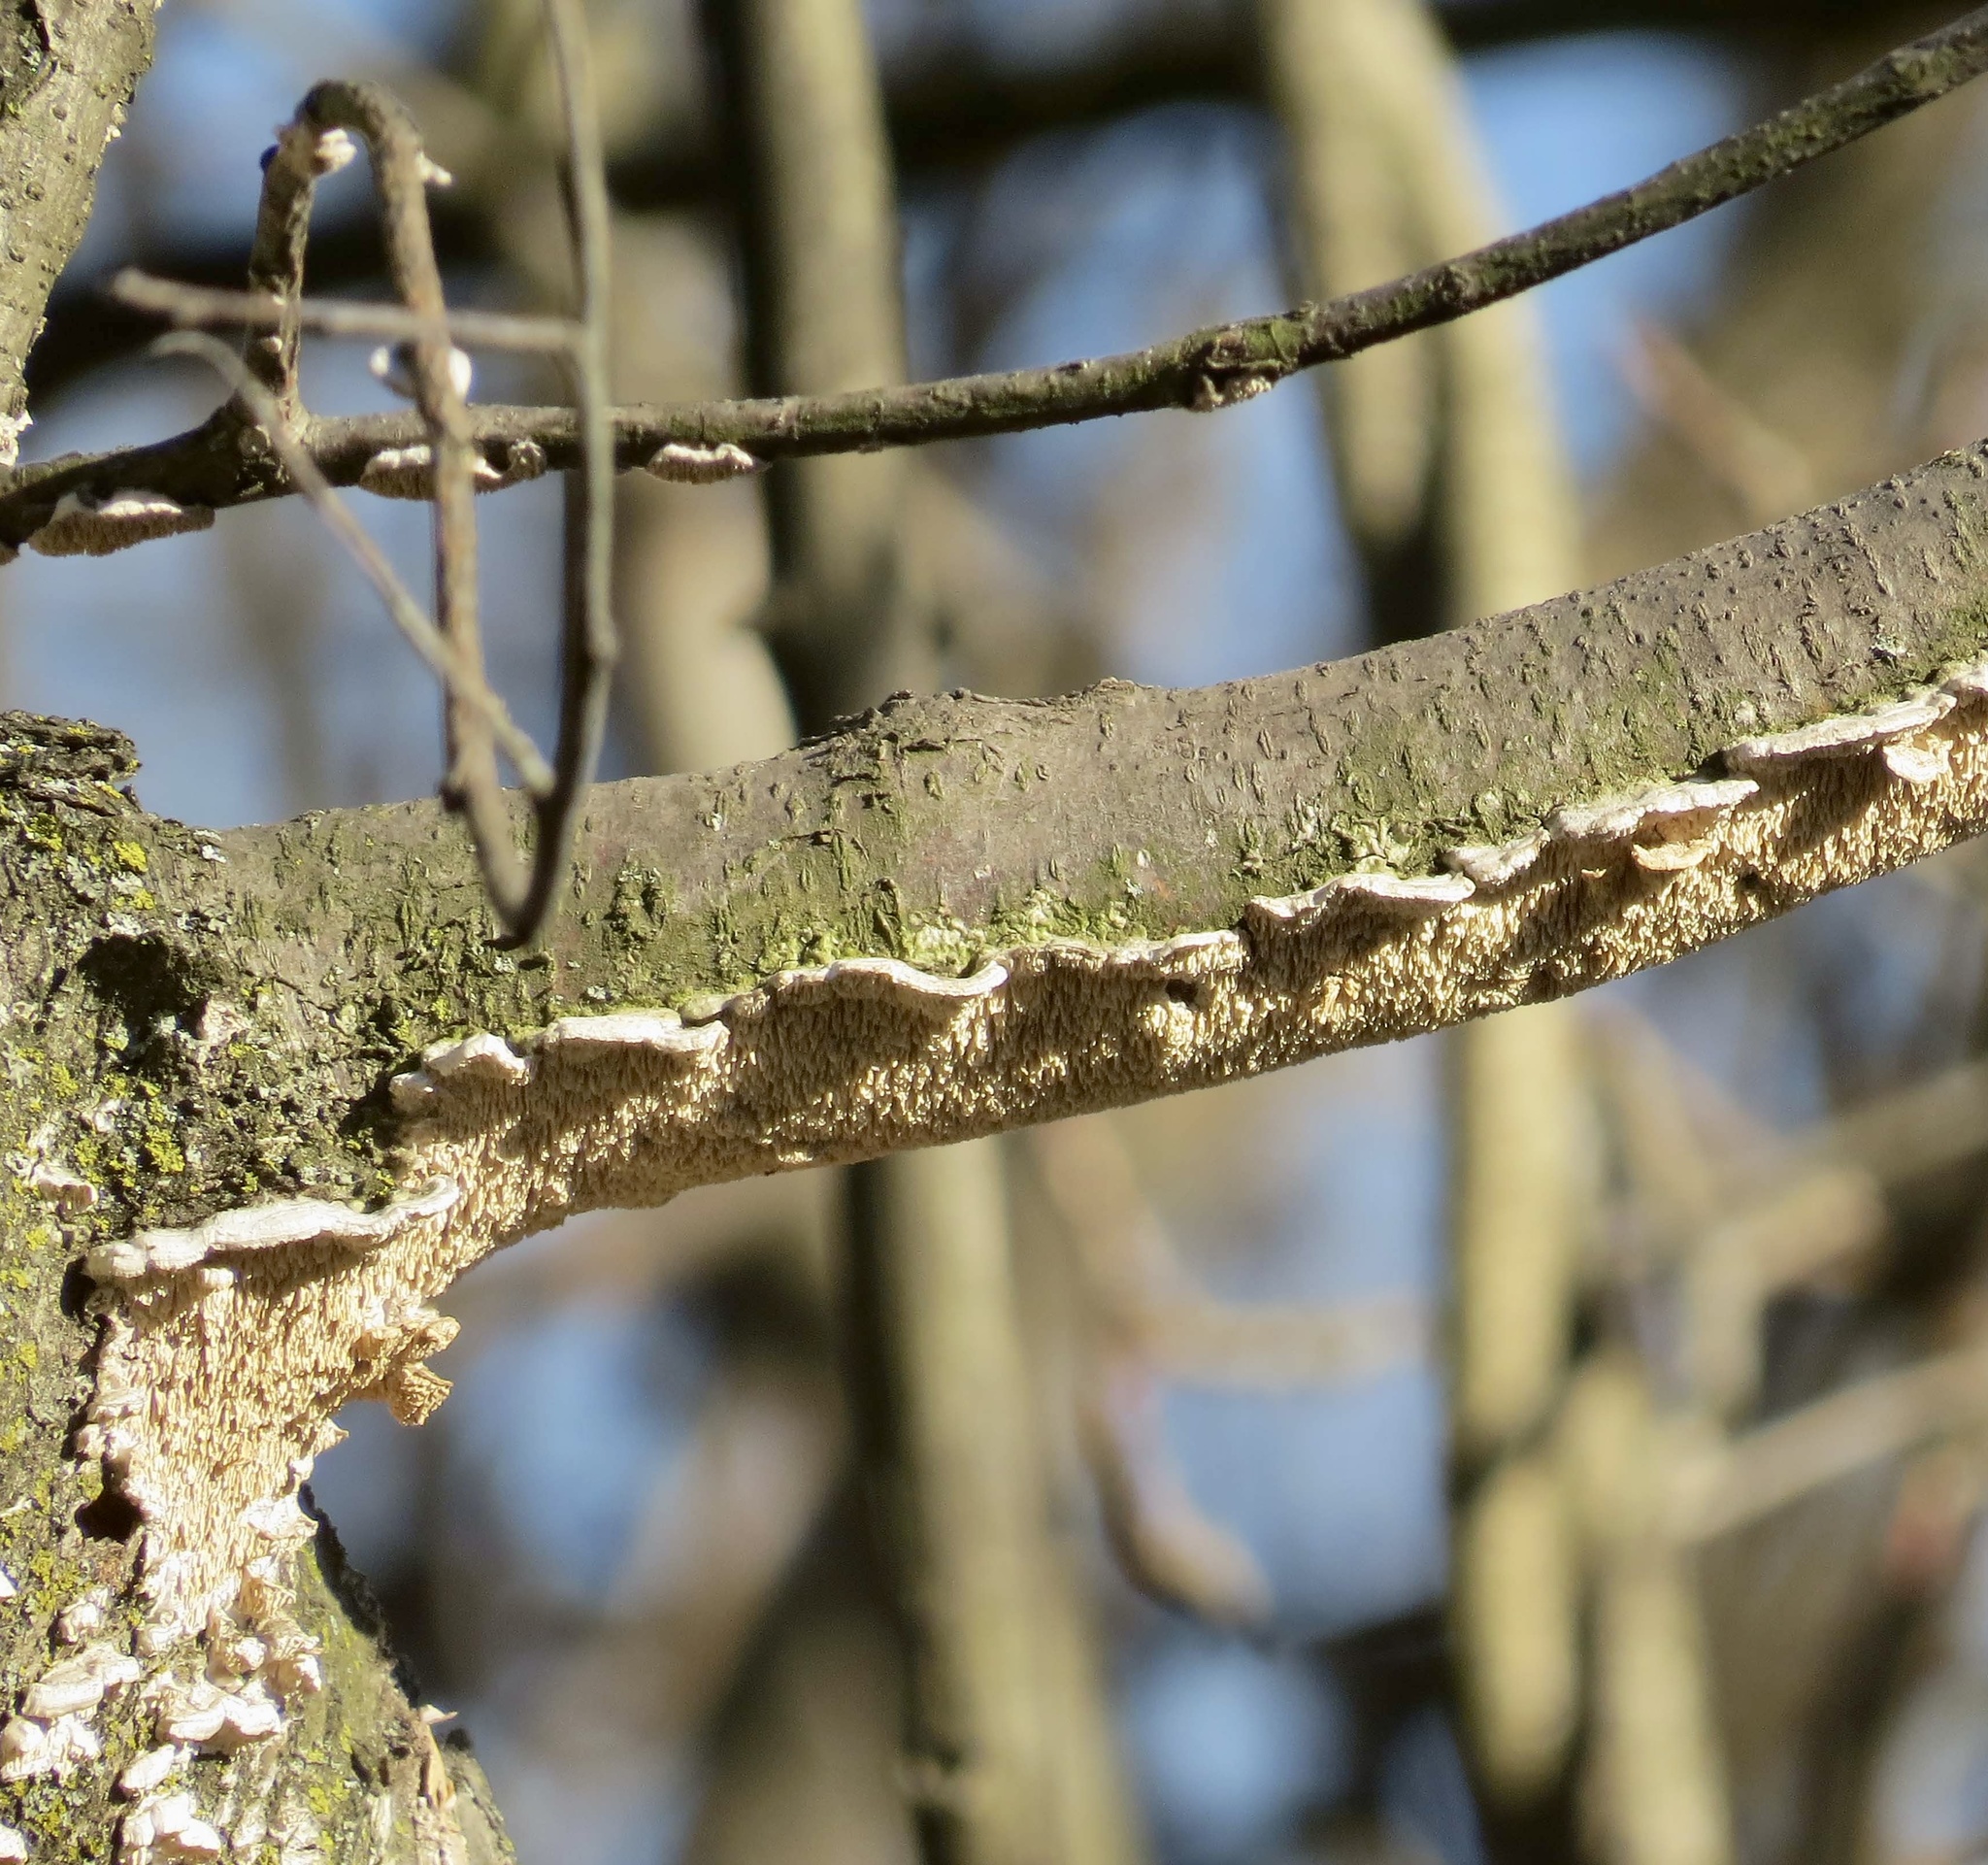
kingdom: Fungi
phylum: Basidiomycota
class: Agaricomycetes
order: Polyporales
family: Irpicaceae
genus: Irpex
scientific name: Irpex lacteus
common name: Milk-white toothed polypore
